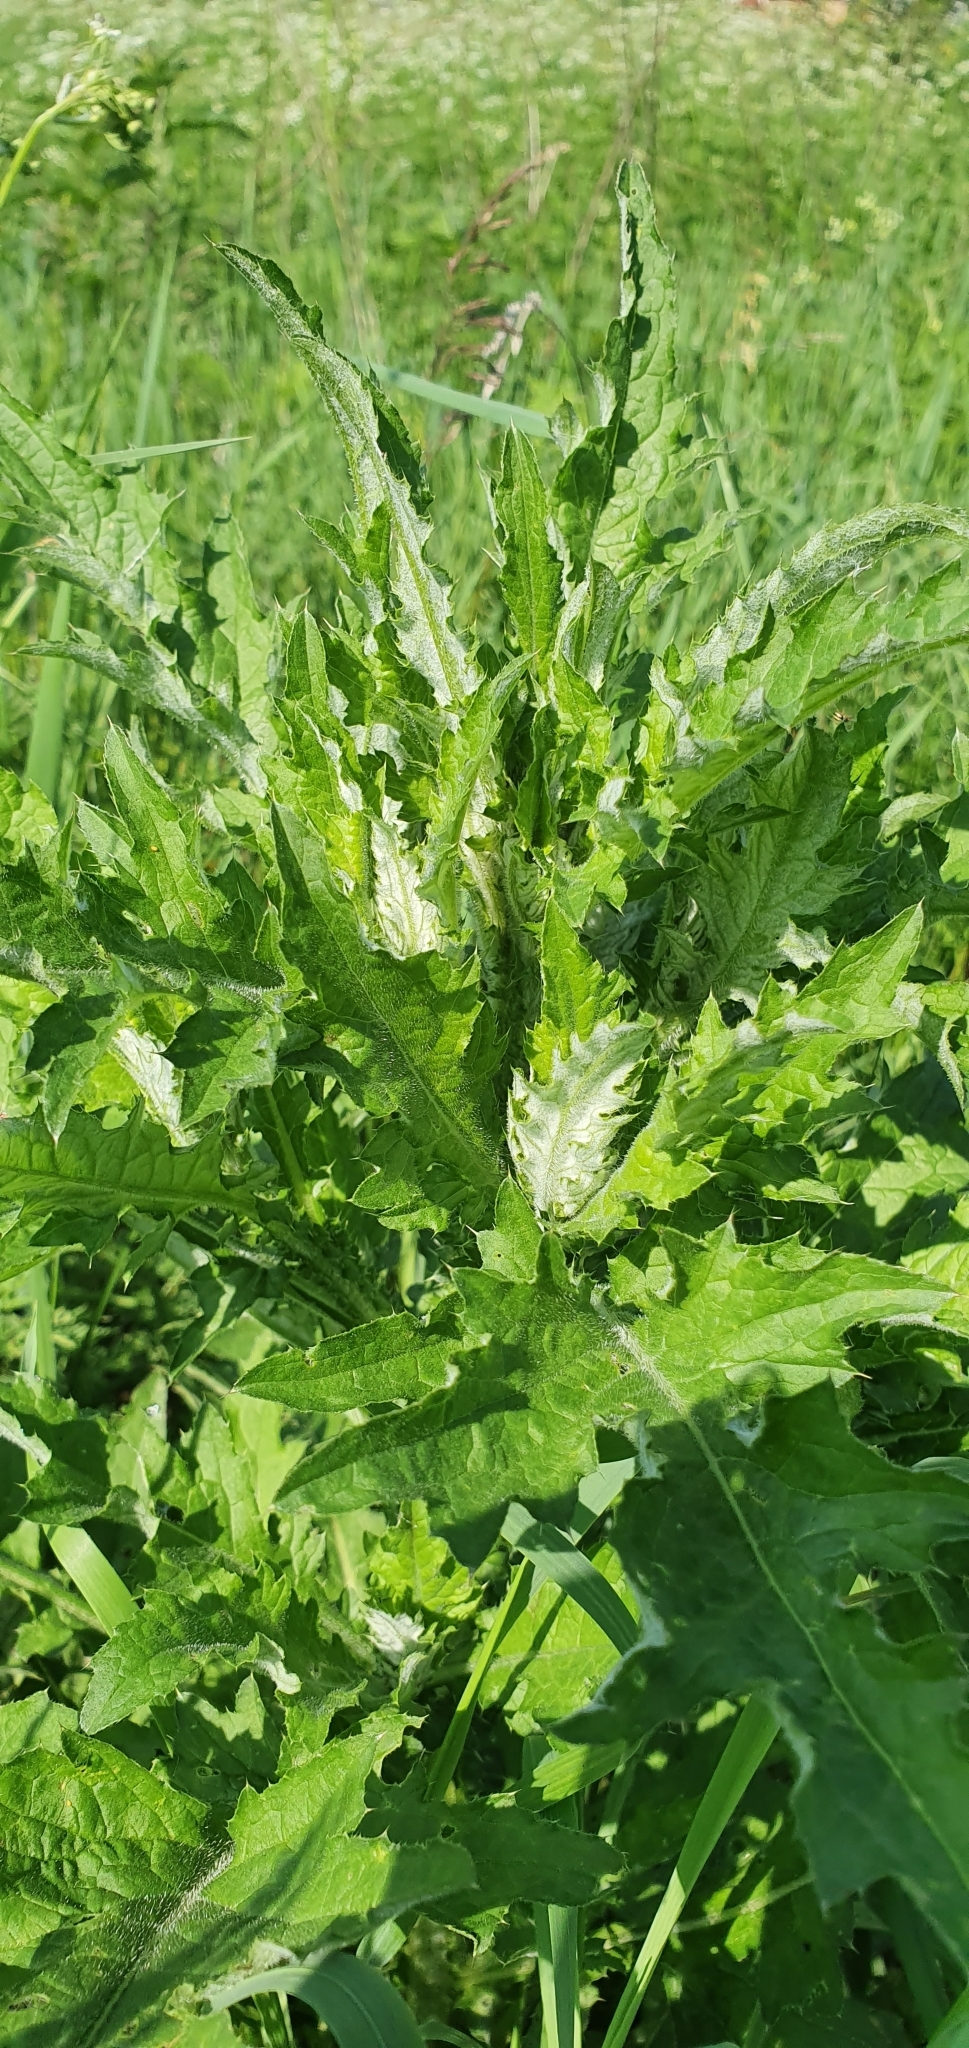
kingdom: Plantae
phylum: Tracheophyta
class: Magnoliopsida
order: Asterales
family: Asteraceae
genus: Carduus
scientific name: Carduus crispus
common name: Welted thistle
